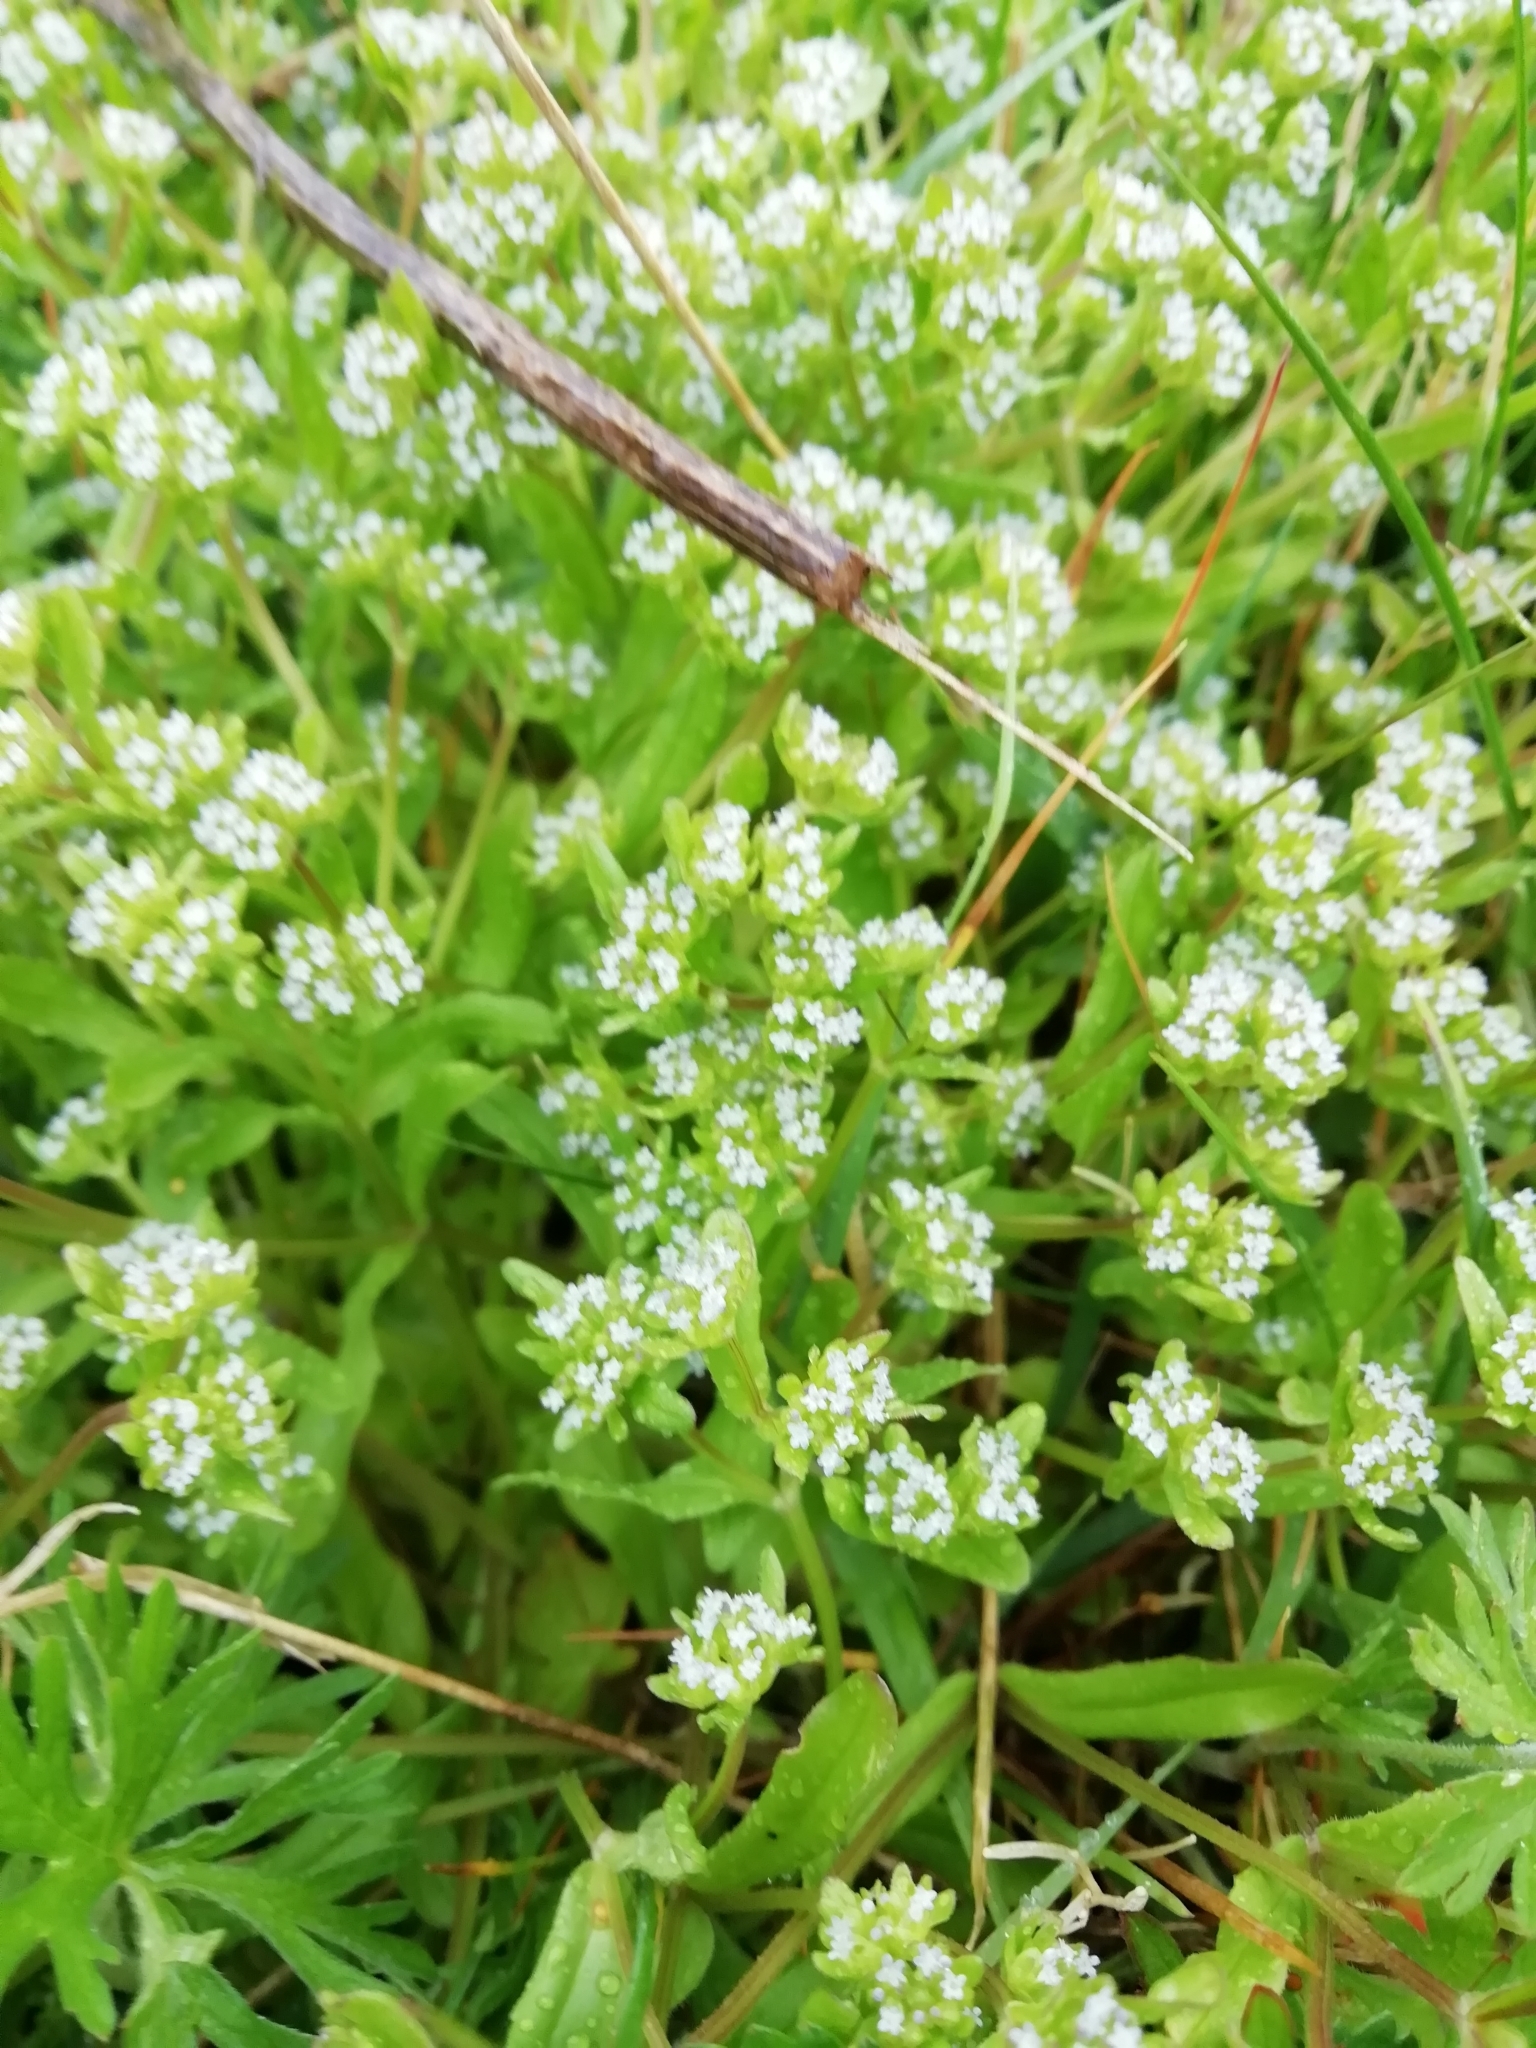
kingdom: Plantae
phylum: Tracheophyta
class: Magnoliopsida
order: Dipsacales
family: Caprifoliaceae
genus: Valerianella
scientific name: Valerianella locusta
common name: Common cornsalad
